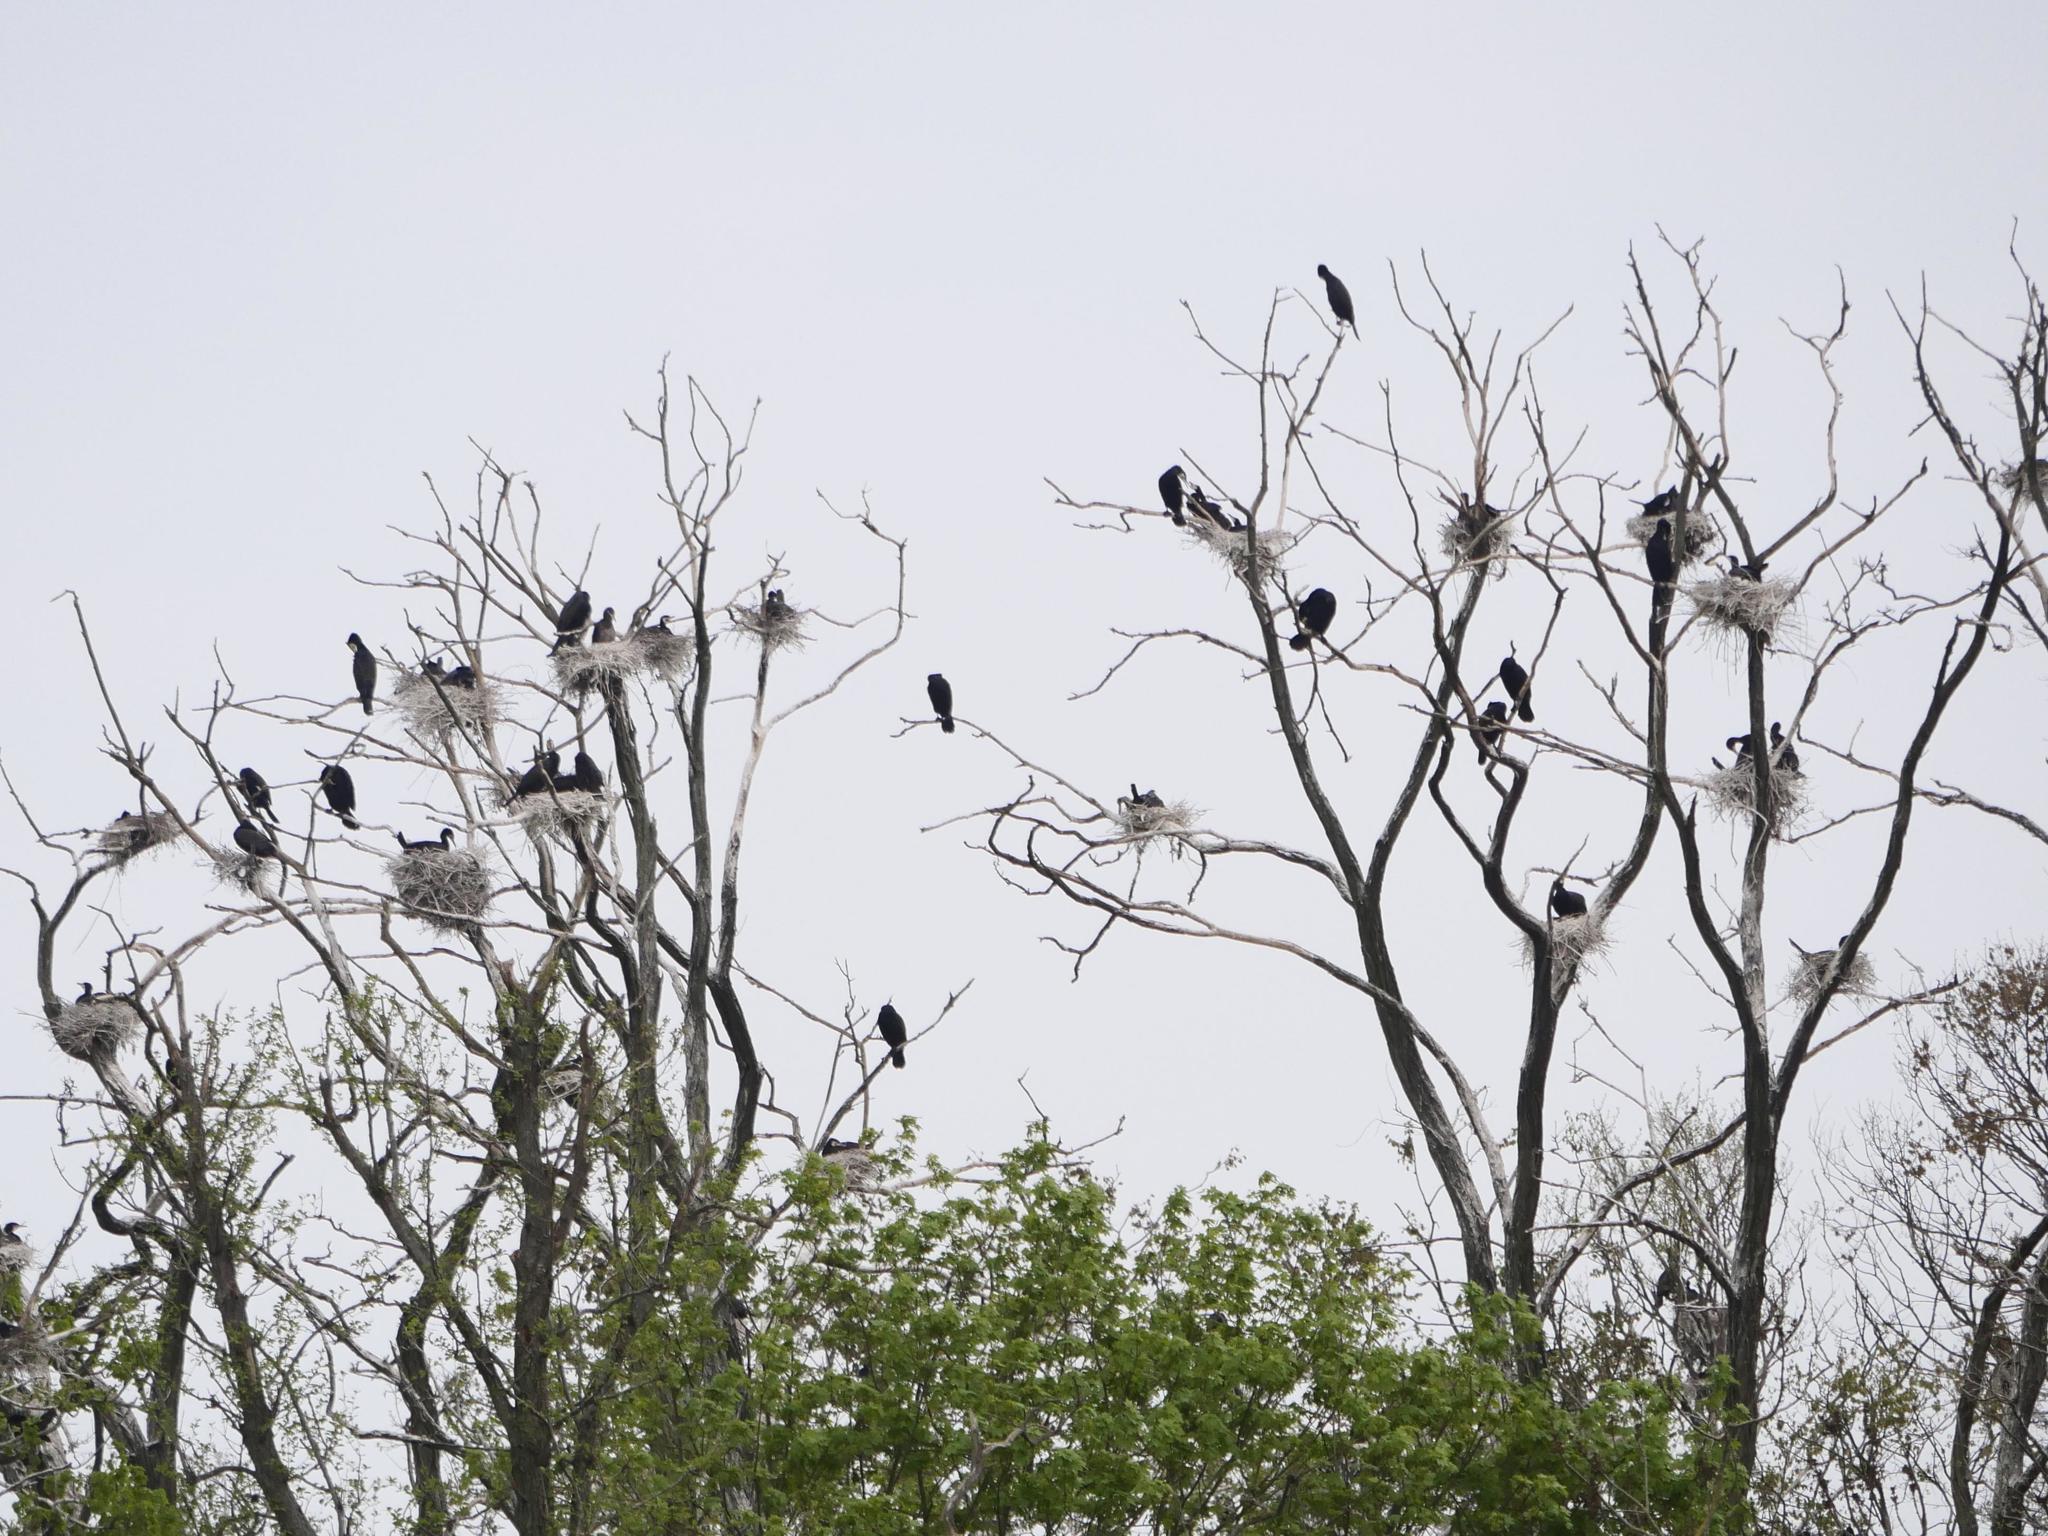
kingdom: Animalia
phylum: Chordata
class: Aves
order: Suliformes
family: Phalacrocoracidae
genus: Phalacrocorax
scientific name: Phalacrocorax carbo
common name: Great cormorant
